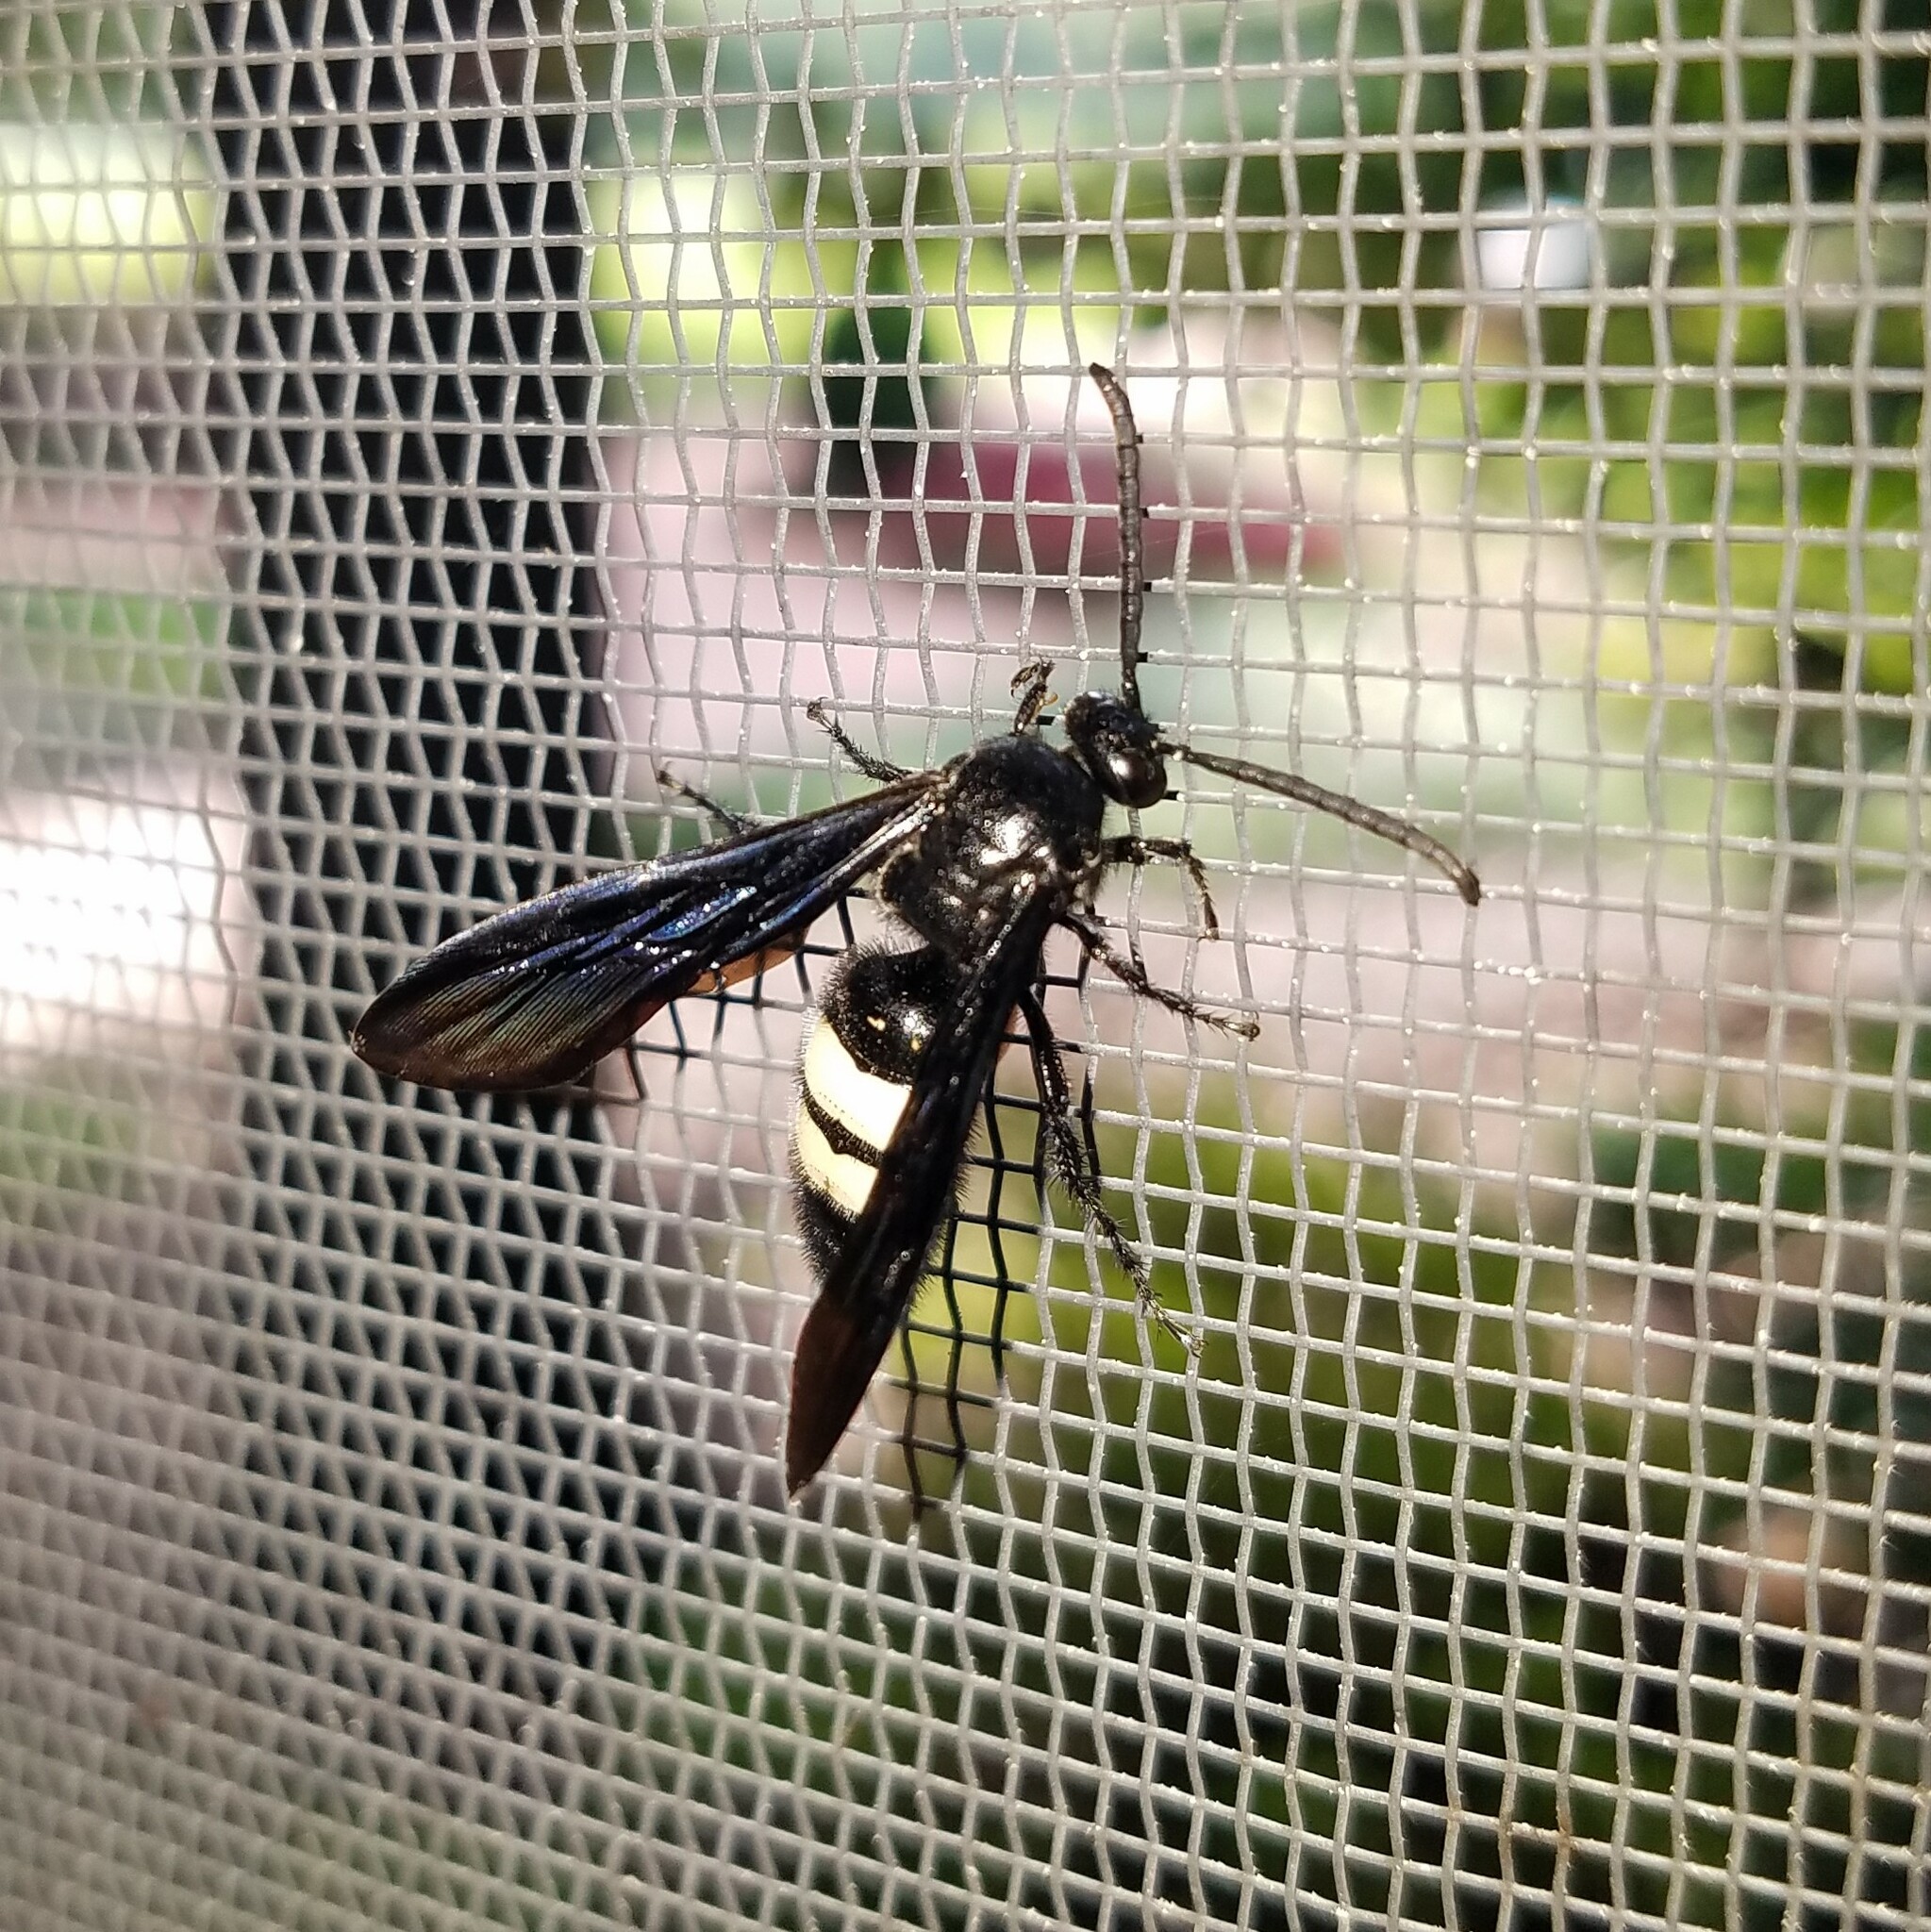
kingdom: Animalia
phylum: Arthropoda
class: Insecta
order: Hymenoptera
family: Scoliidae
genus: Scolia
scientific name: Scolia bicincta
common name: Double-banded scoliid wasp
